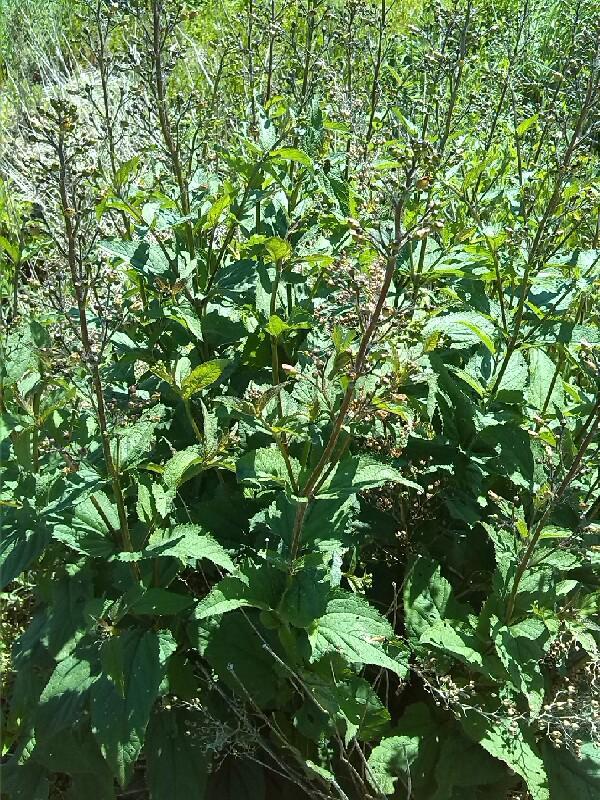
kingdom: Plantae
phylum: Tracheophyta
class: Magnoliopsida
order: Lamiales
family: Scrophulariaceae
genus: Scrophularia
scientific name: Scrophularia nodosa
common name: Common figwort
